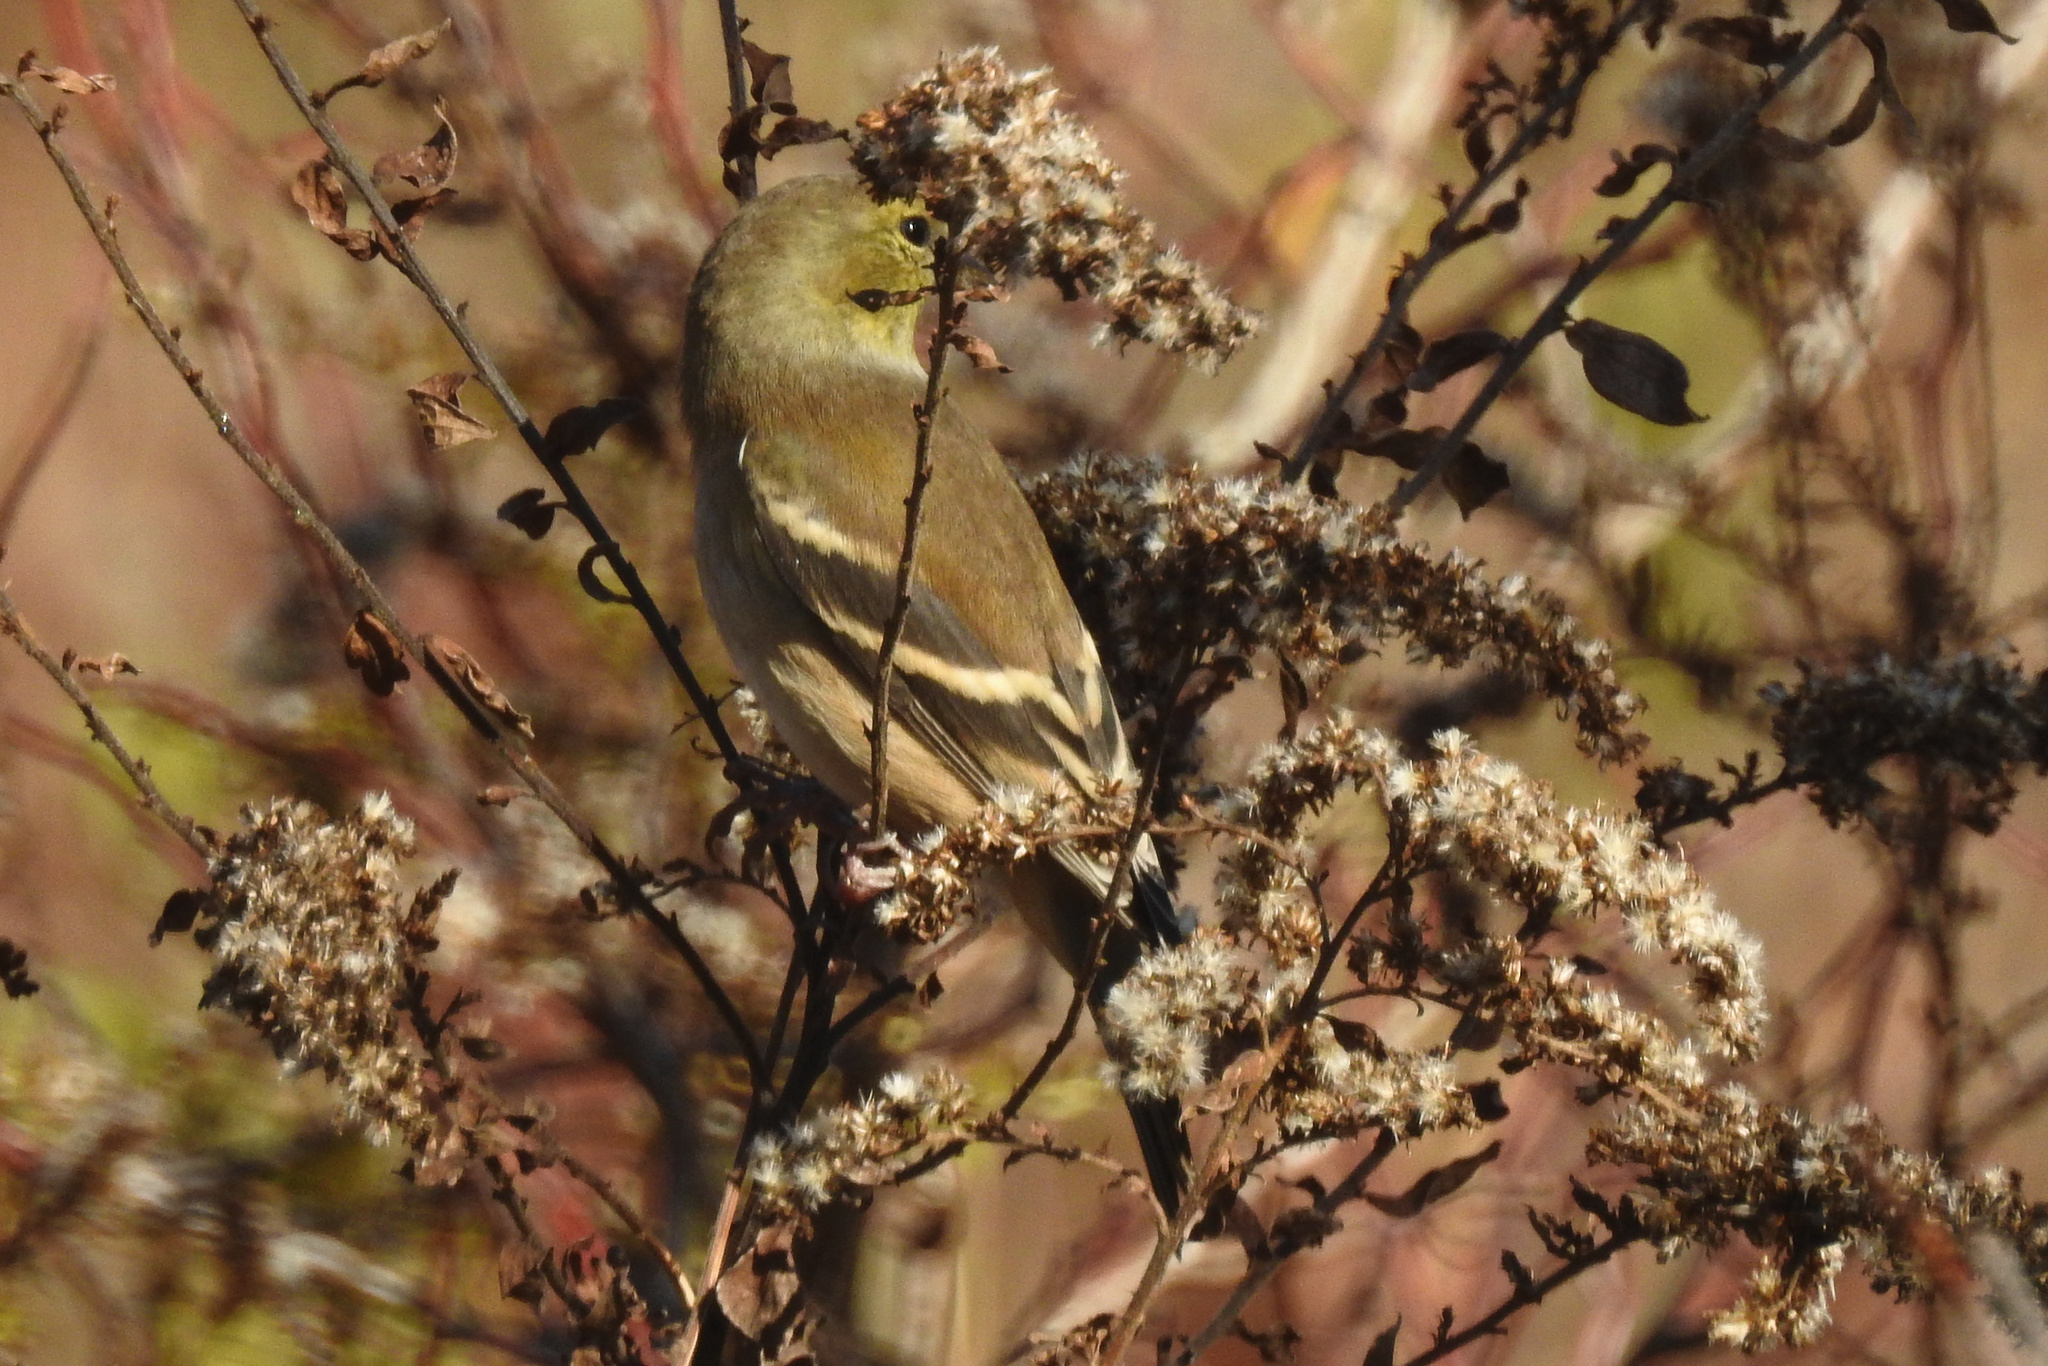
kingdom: Animalia
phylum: Chordata
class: Aves
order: Passeriformes
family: Fringillidae
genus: Spinus
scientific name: Spinus tristis
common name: American goldfinch
